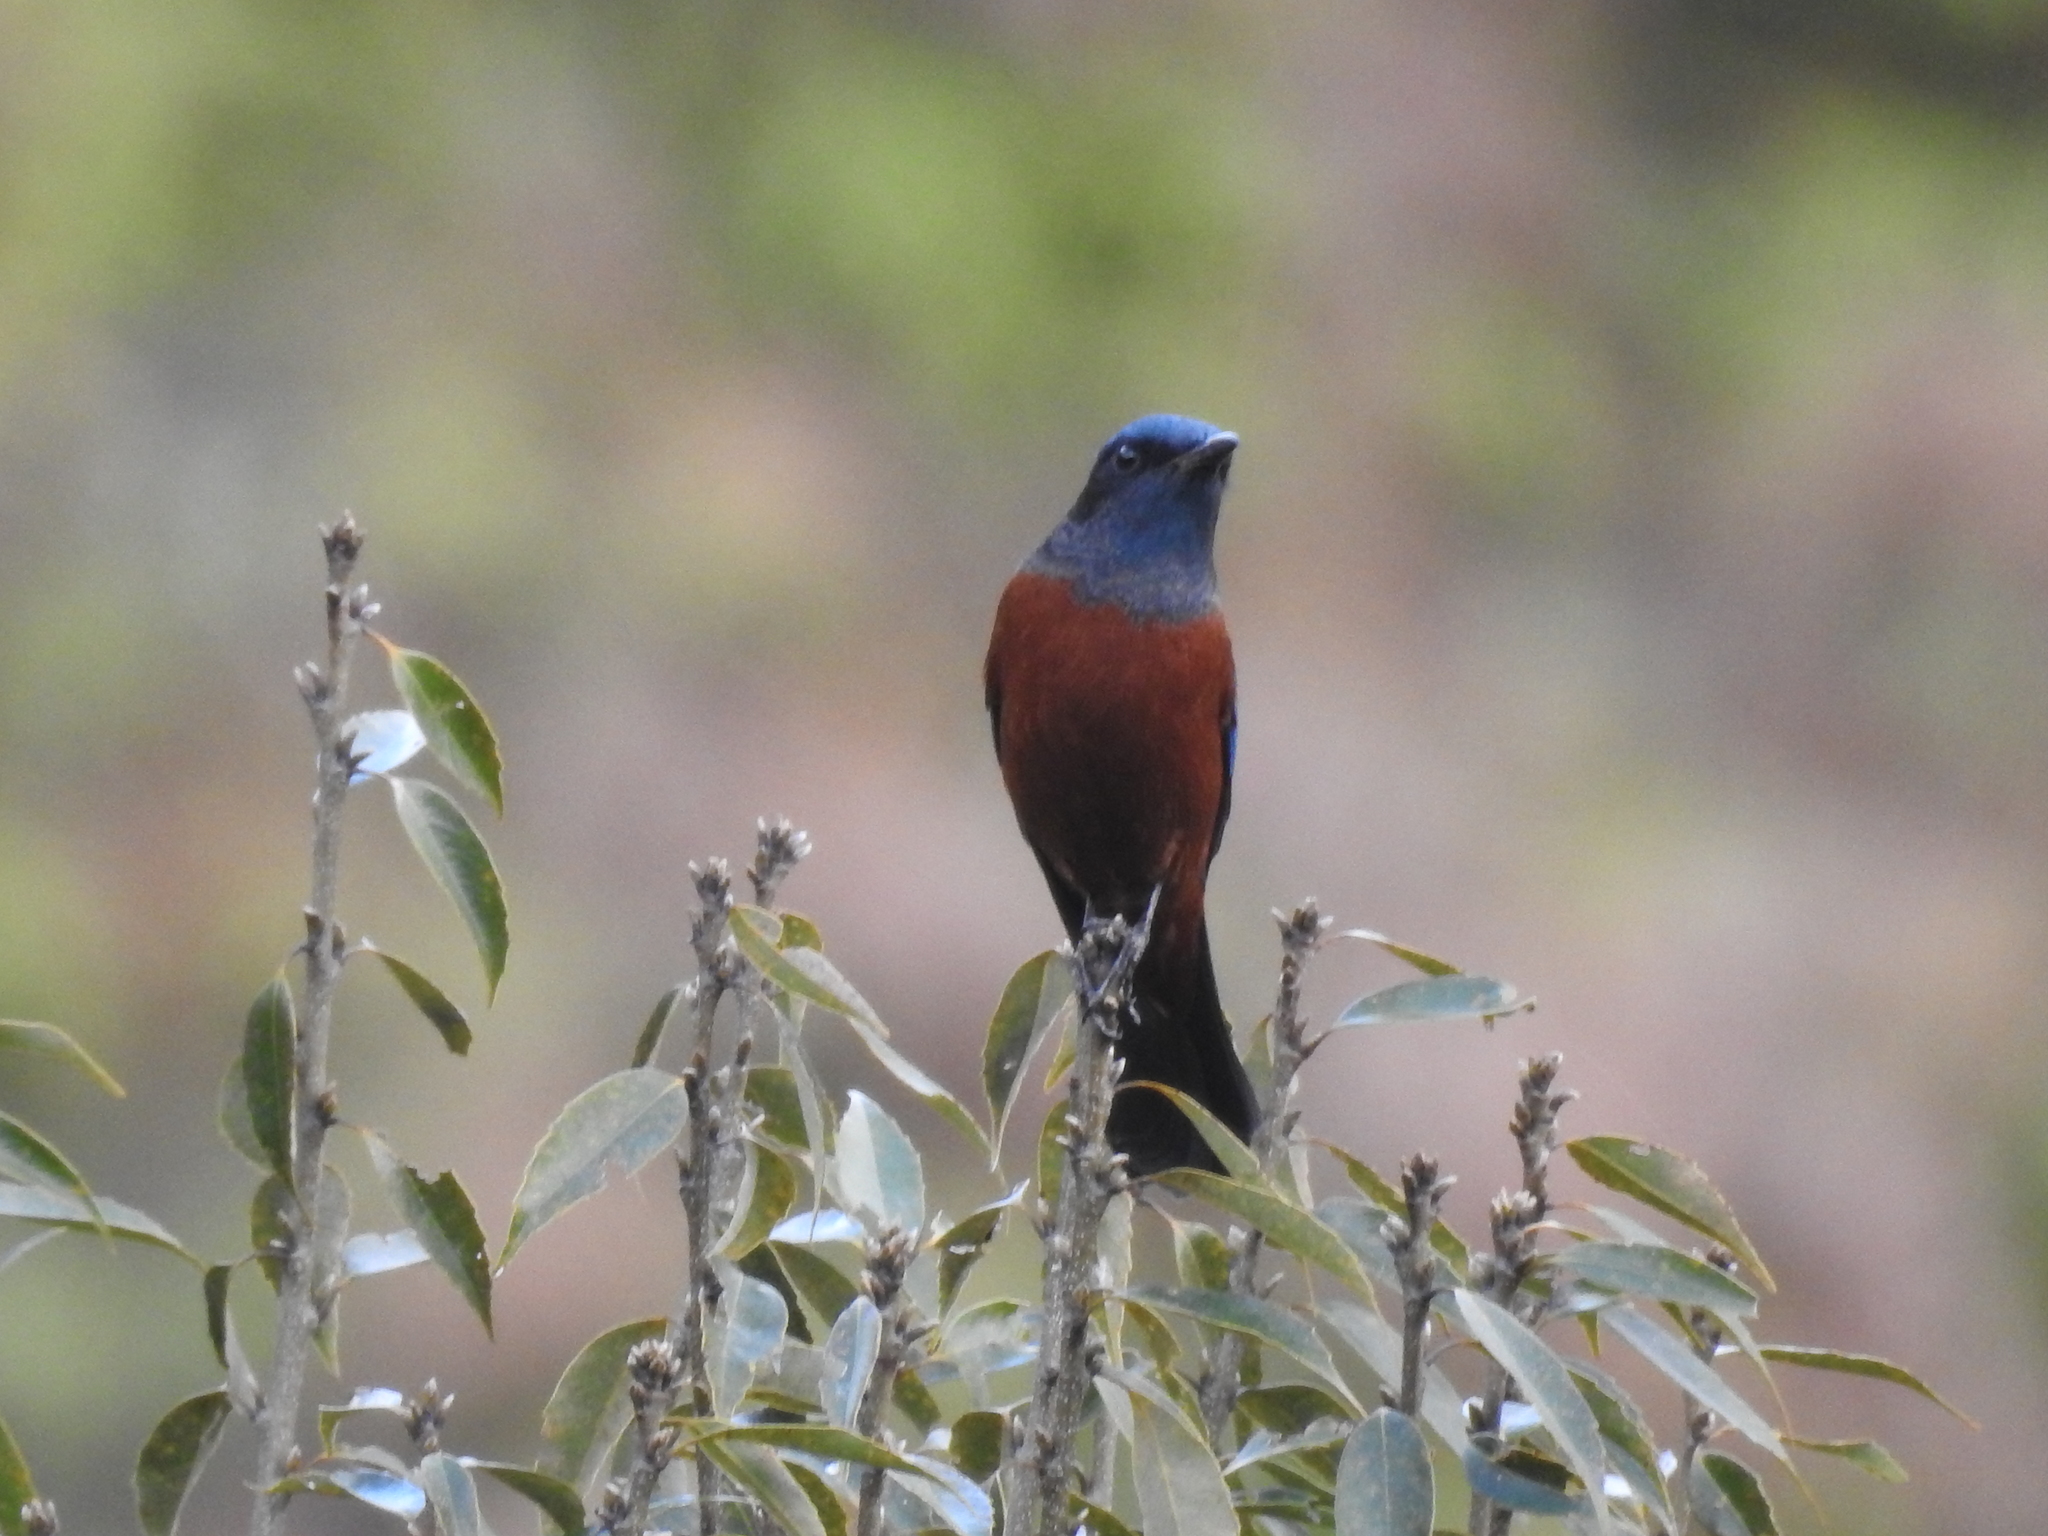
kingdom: Animalia
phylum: Chordata
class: Aves
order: Passeriformes
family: Muscicapidae
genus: Monticola
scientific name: Monticola rufiventris
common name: Chestnut-bellied rock thrush
